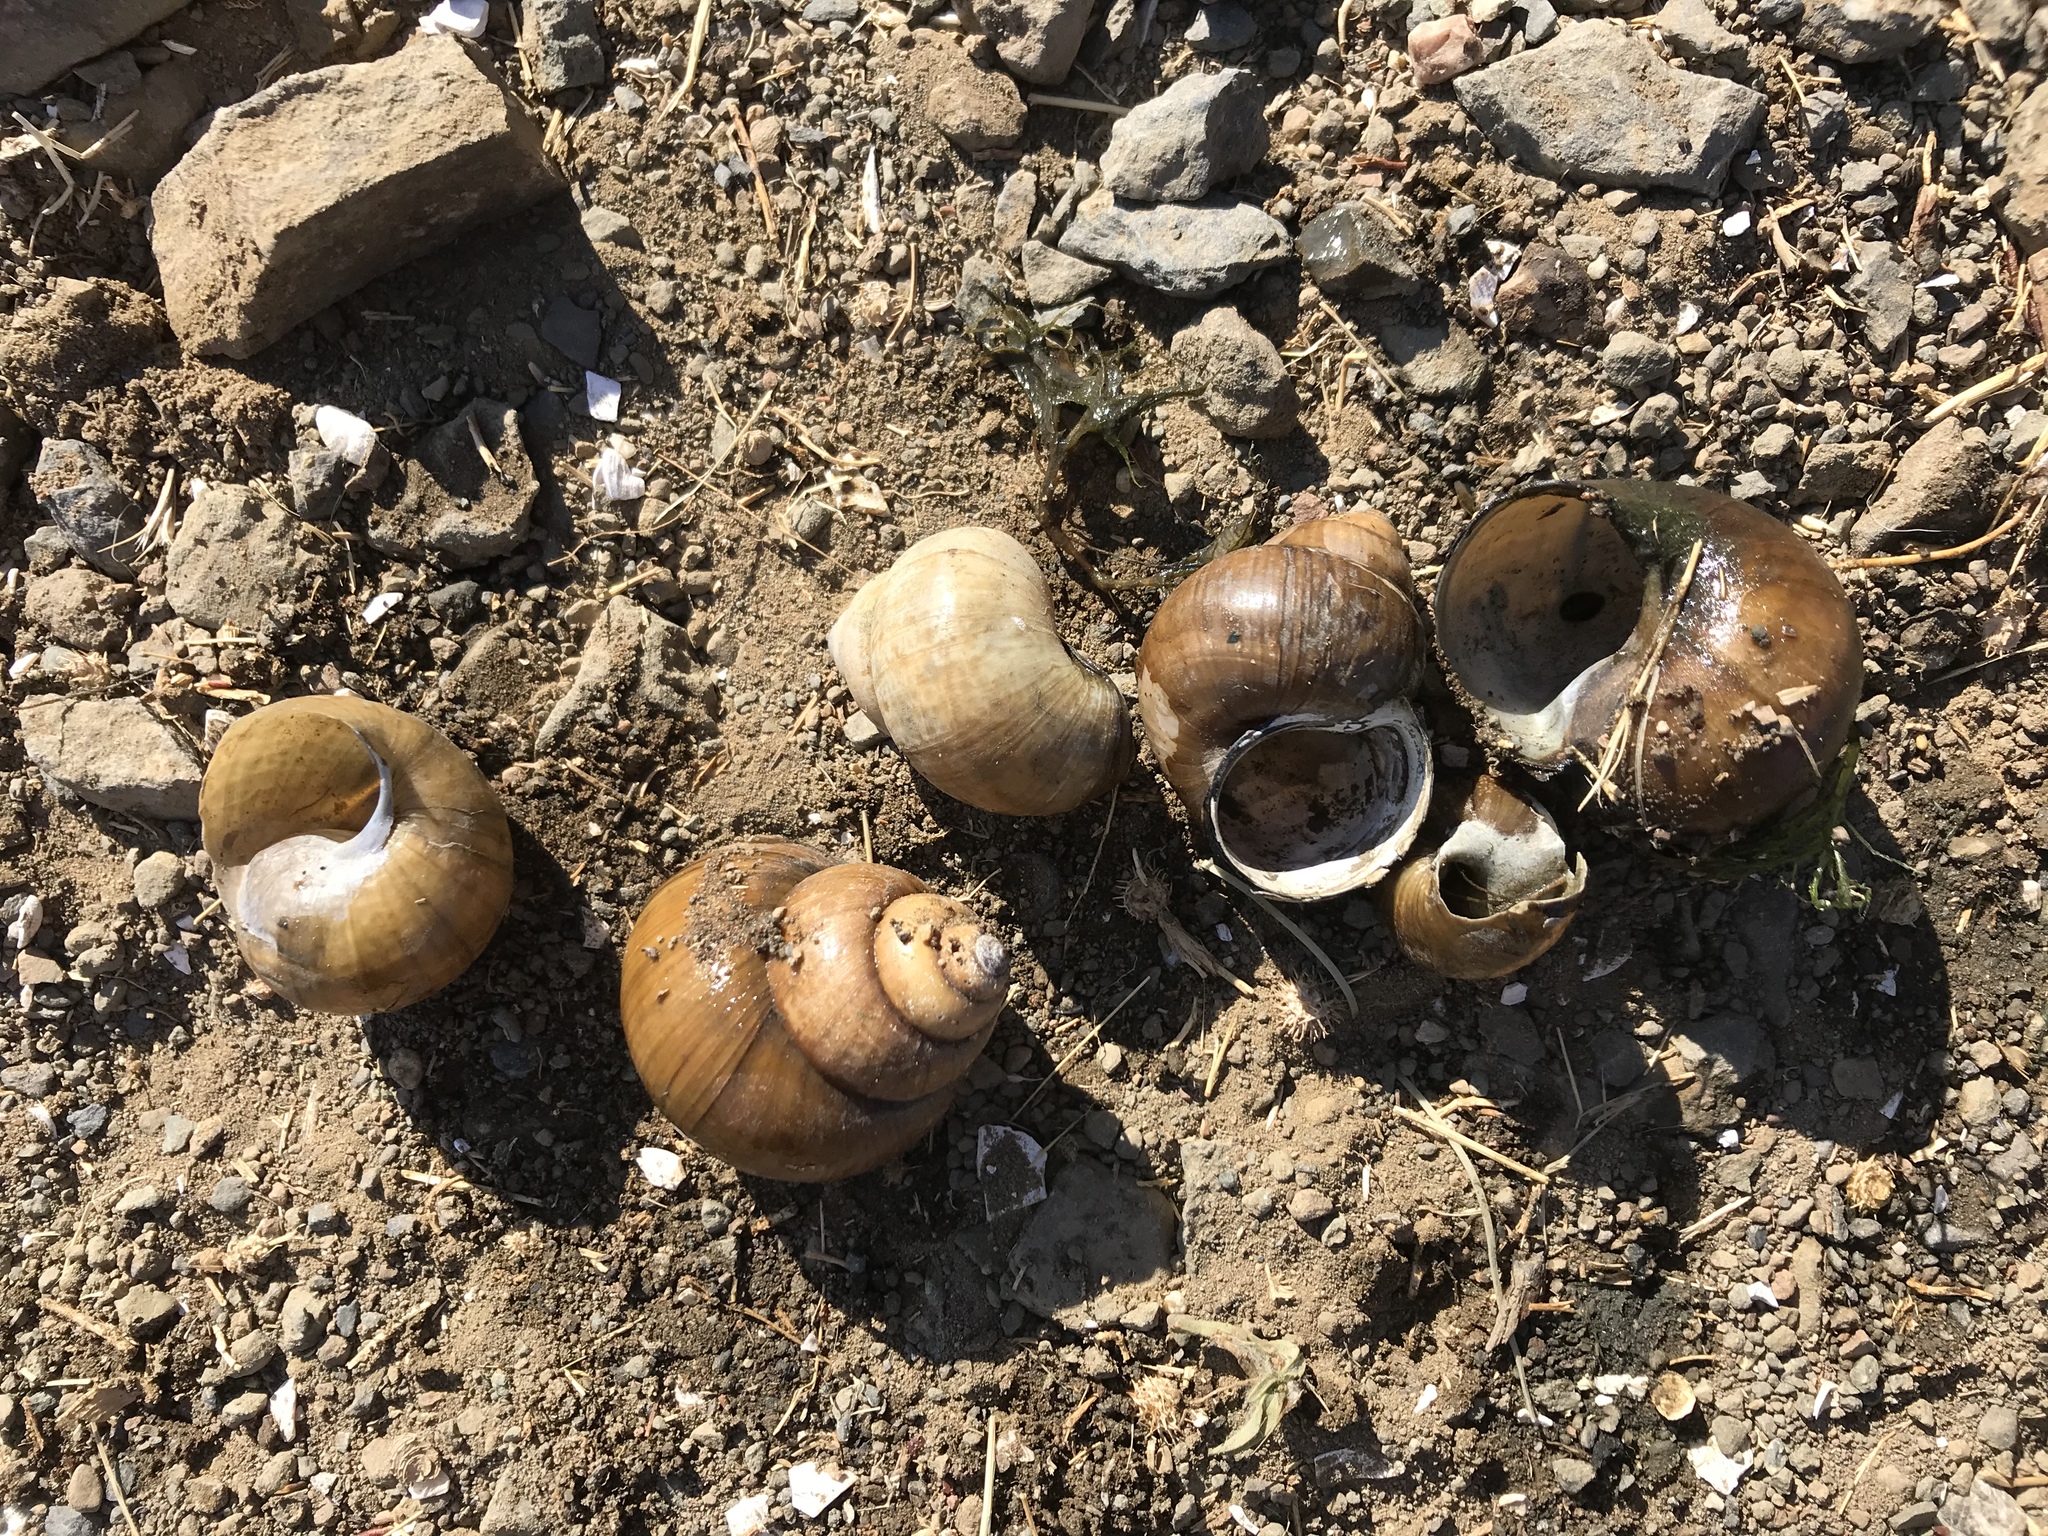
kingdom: Animalia
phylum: Mollusca
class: Gastropoda
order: Architaenioglossa
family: Viviparidae
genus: Cipangopaludina
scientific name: Cipangopaludina chinensis
